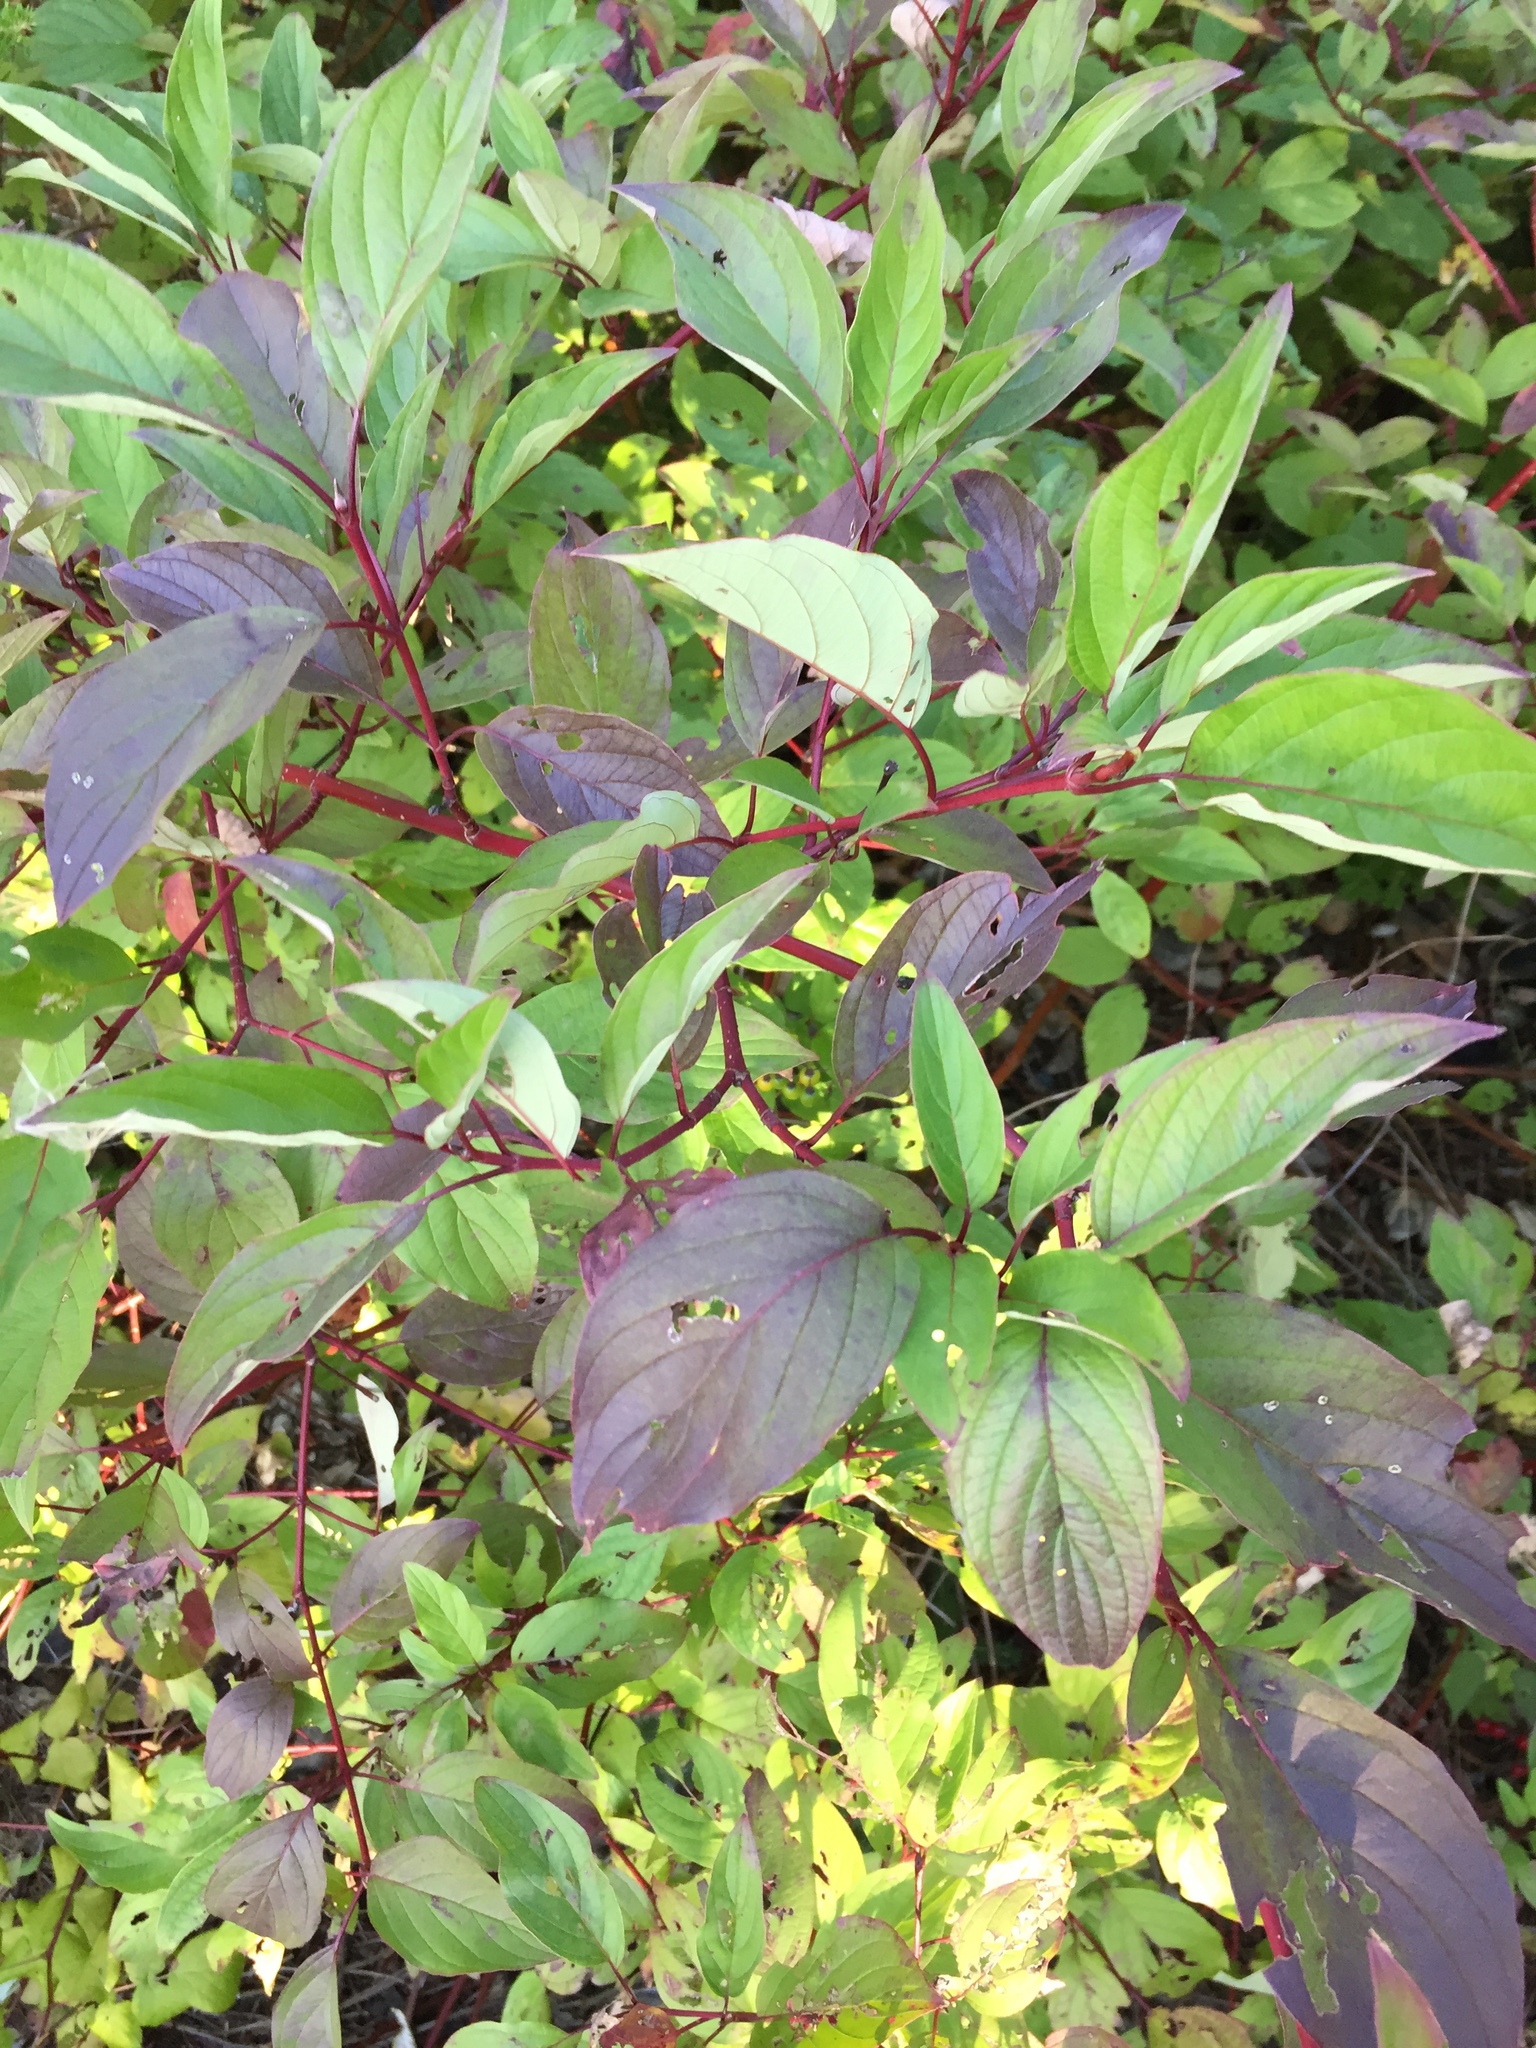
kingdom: Plantae
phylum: Tracheophyta
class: Magnoliopsida
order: Cornales
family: Cornaceae
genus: Cornus
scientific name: Cornus sericea
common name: Red-osier dogwood
